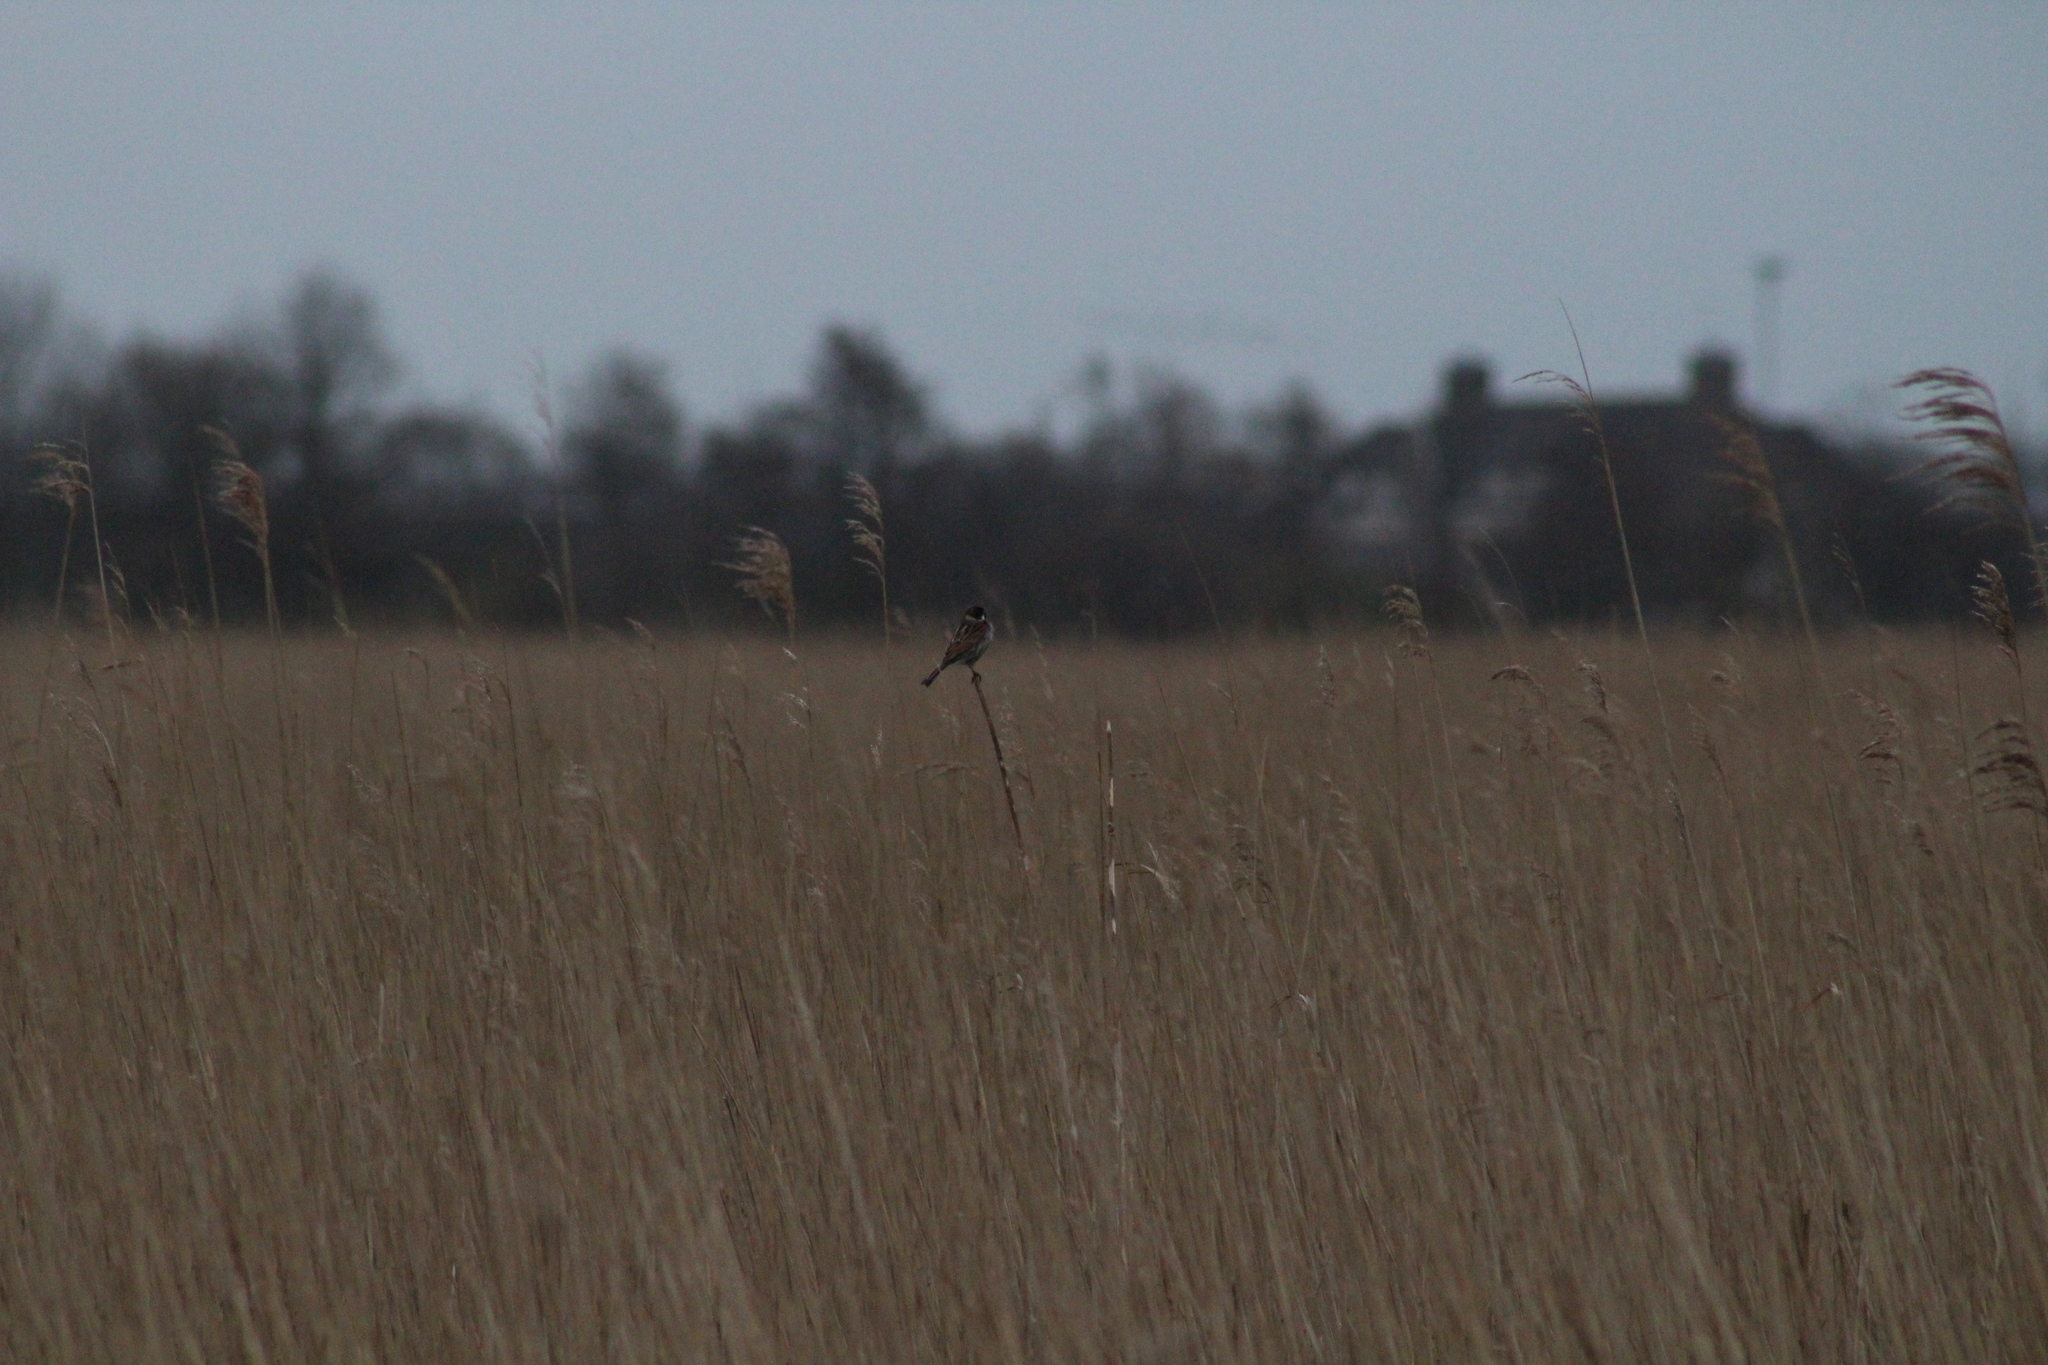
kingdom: Animalia
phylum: Chordata
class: Aves
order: Passeriformes
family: Emberizidae
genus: Emberiza
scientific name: Emberiza schoeniclus
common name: Reed bunting
